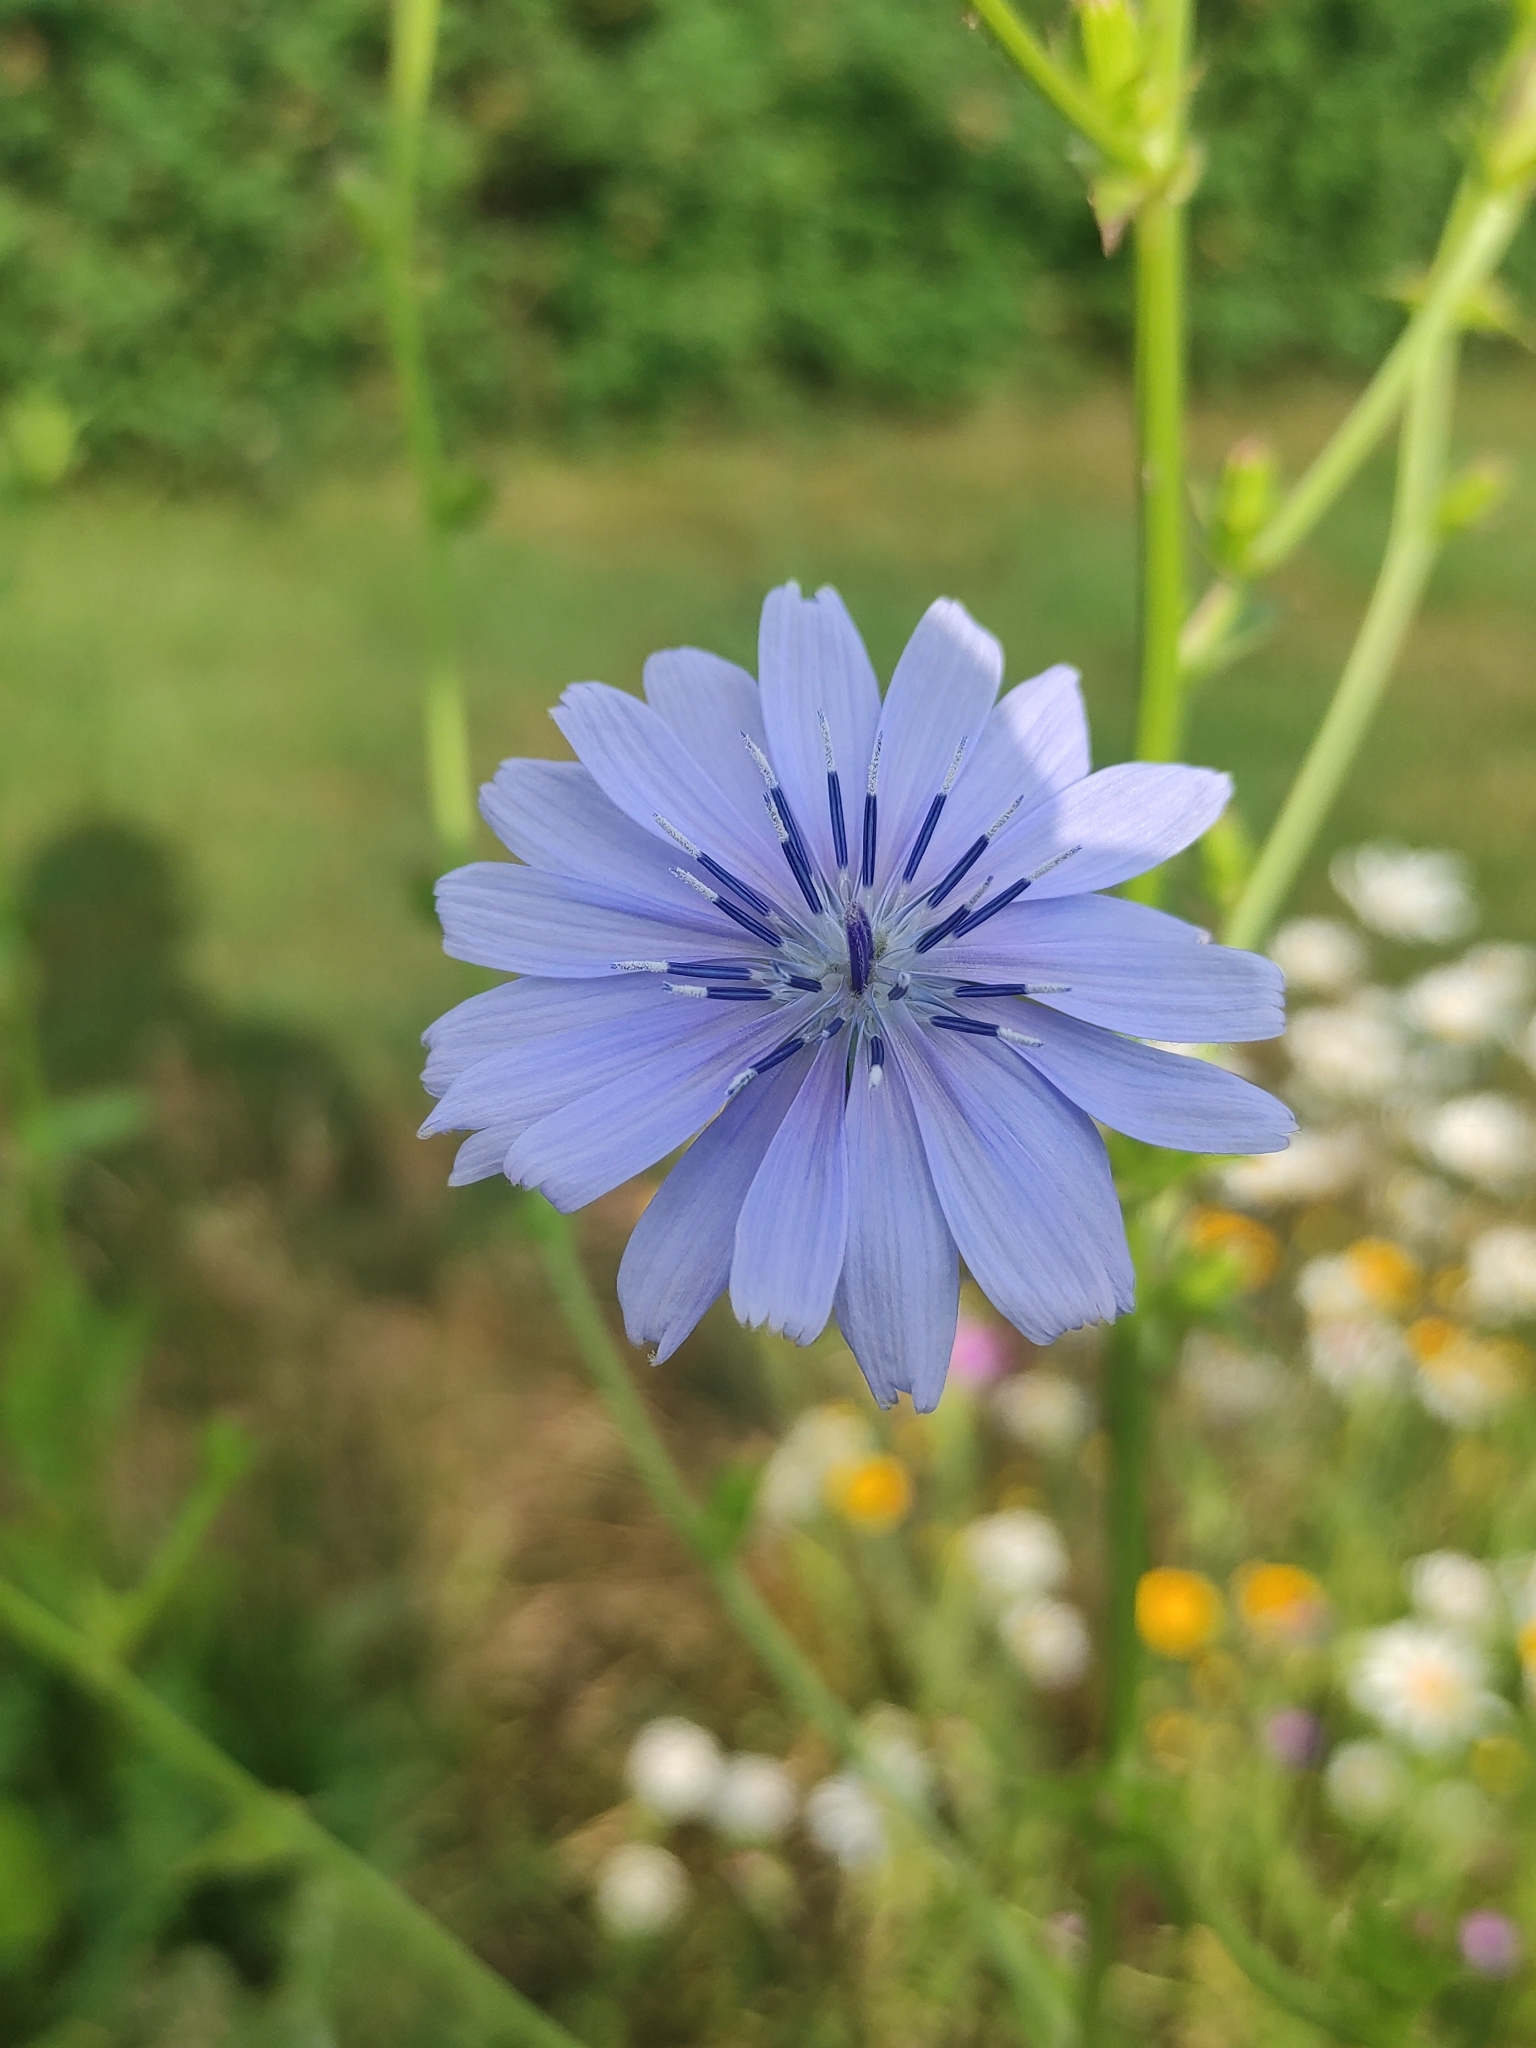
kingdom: Plantae
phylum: Tracheophyta
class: Magnoliopsida
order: Asterales
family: Asteraceae
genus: Cichorium
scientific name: Cichorium intybus
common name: Chicory
